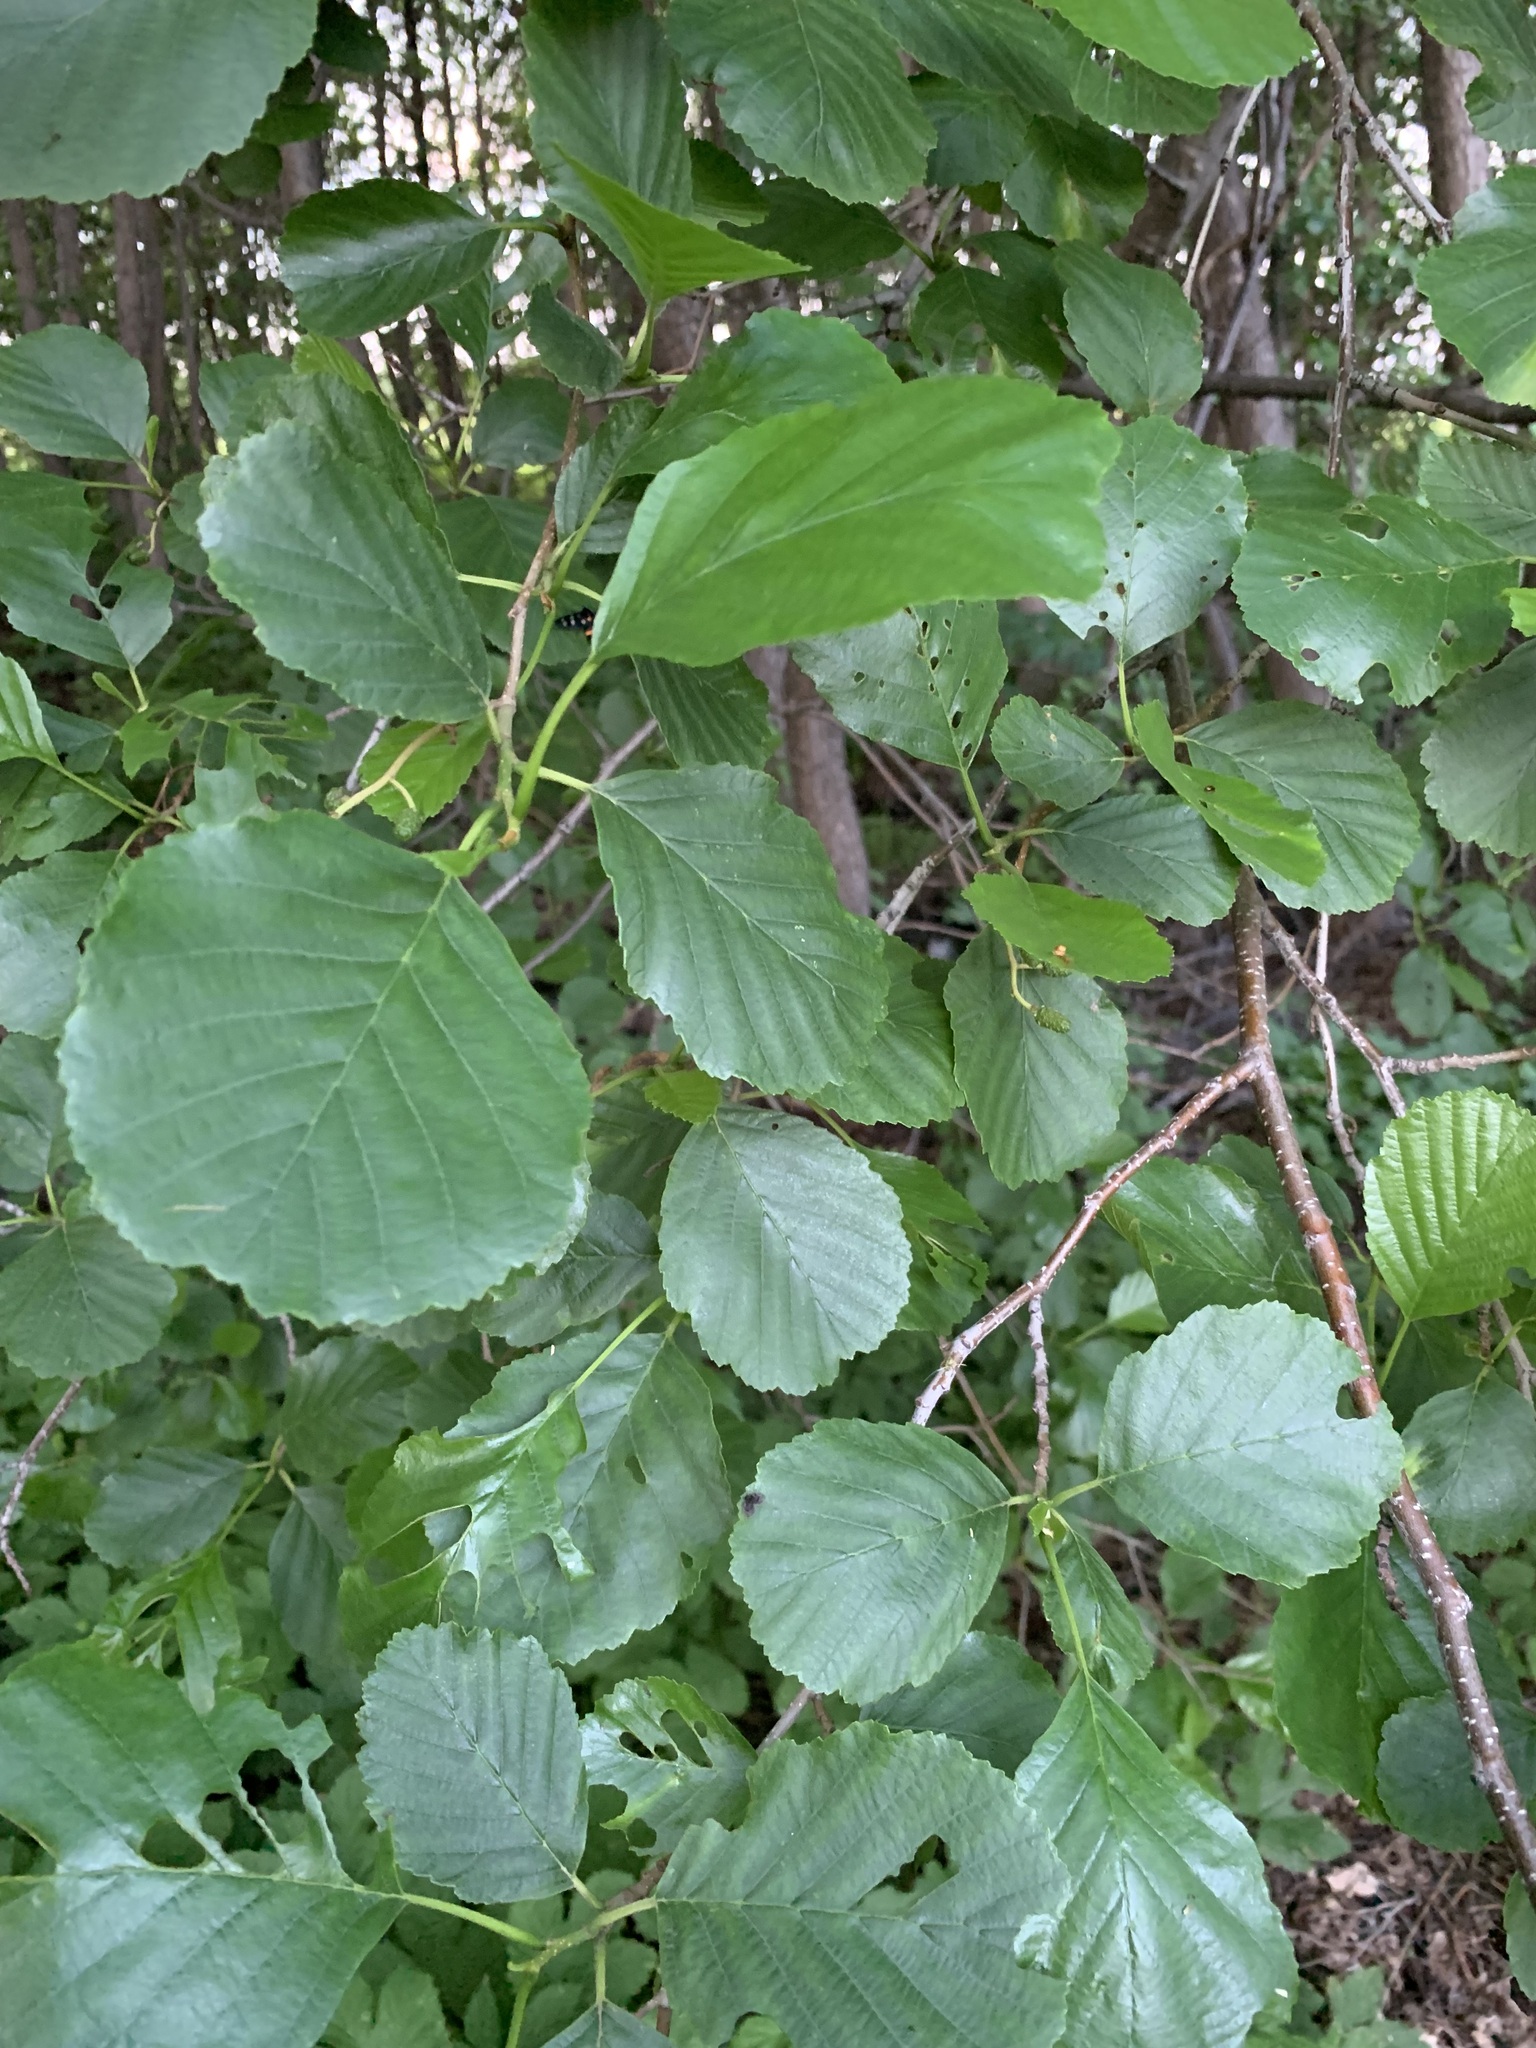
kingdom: Plantae
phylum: Tracheophyta
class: Magnoliopsida
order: Fagales
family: Betulaceae
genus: Alnus
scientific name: Alnus glutinosa
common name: Black alder
